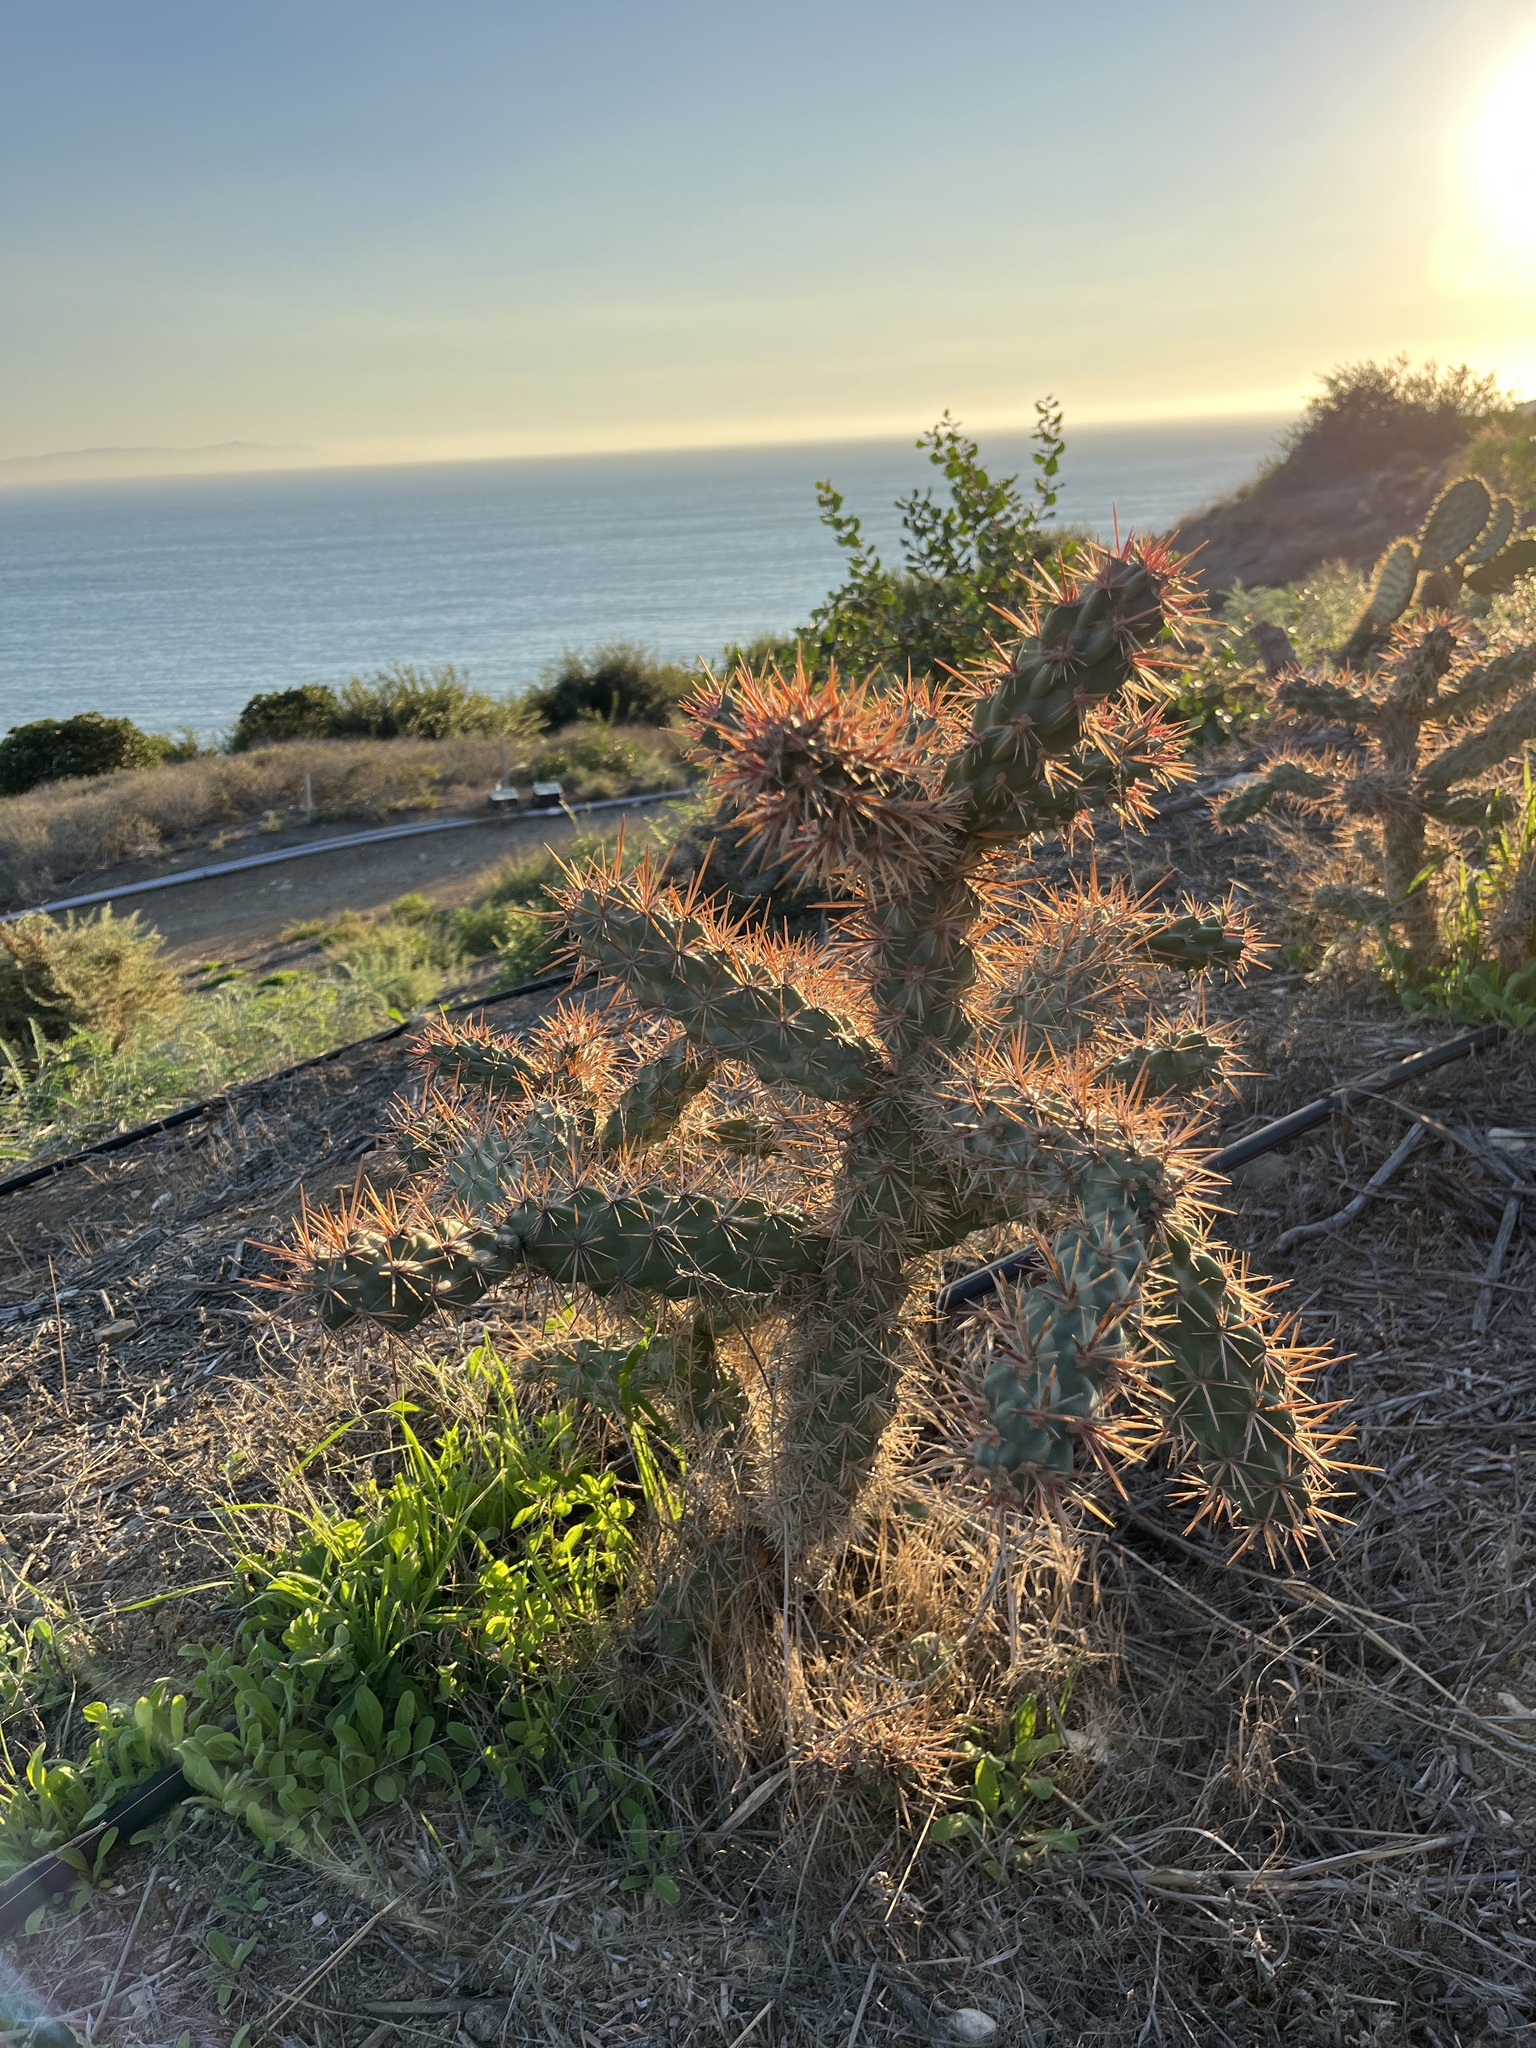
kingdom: Plantae
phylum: Tracheophyta
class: Magnoliopsida
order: Caryophyllales
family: Cactaceae
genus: Cylindropuntia
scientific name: Cylindropuntia prolifera
